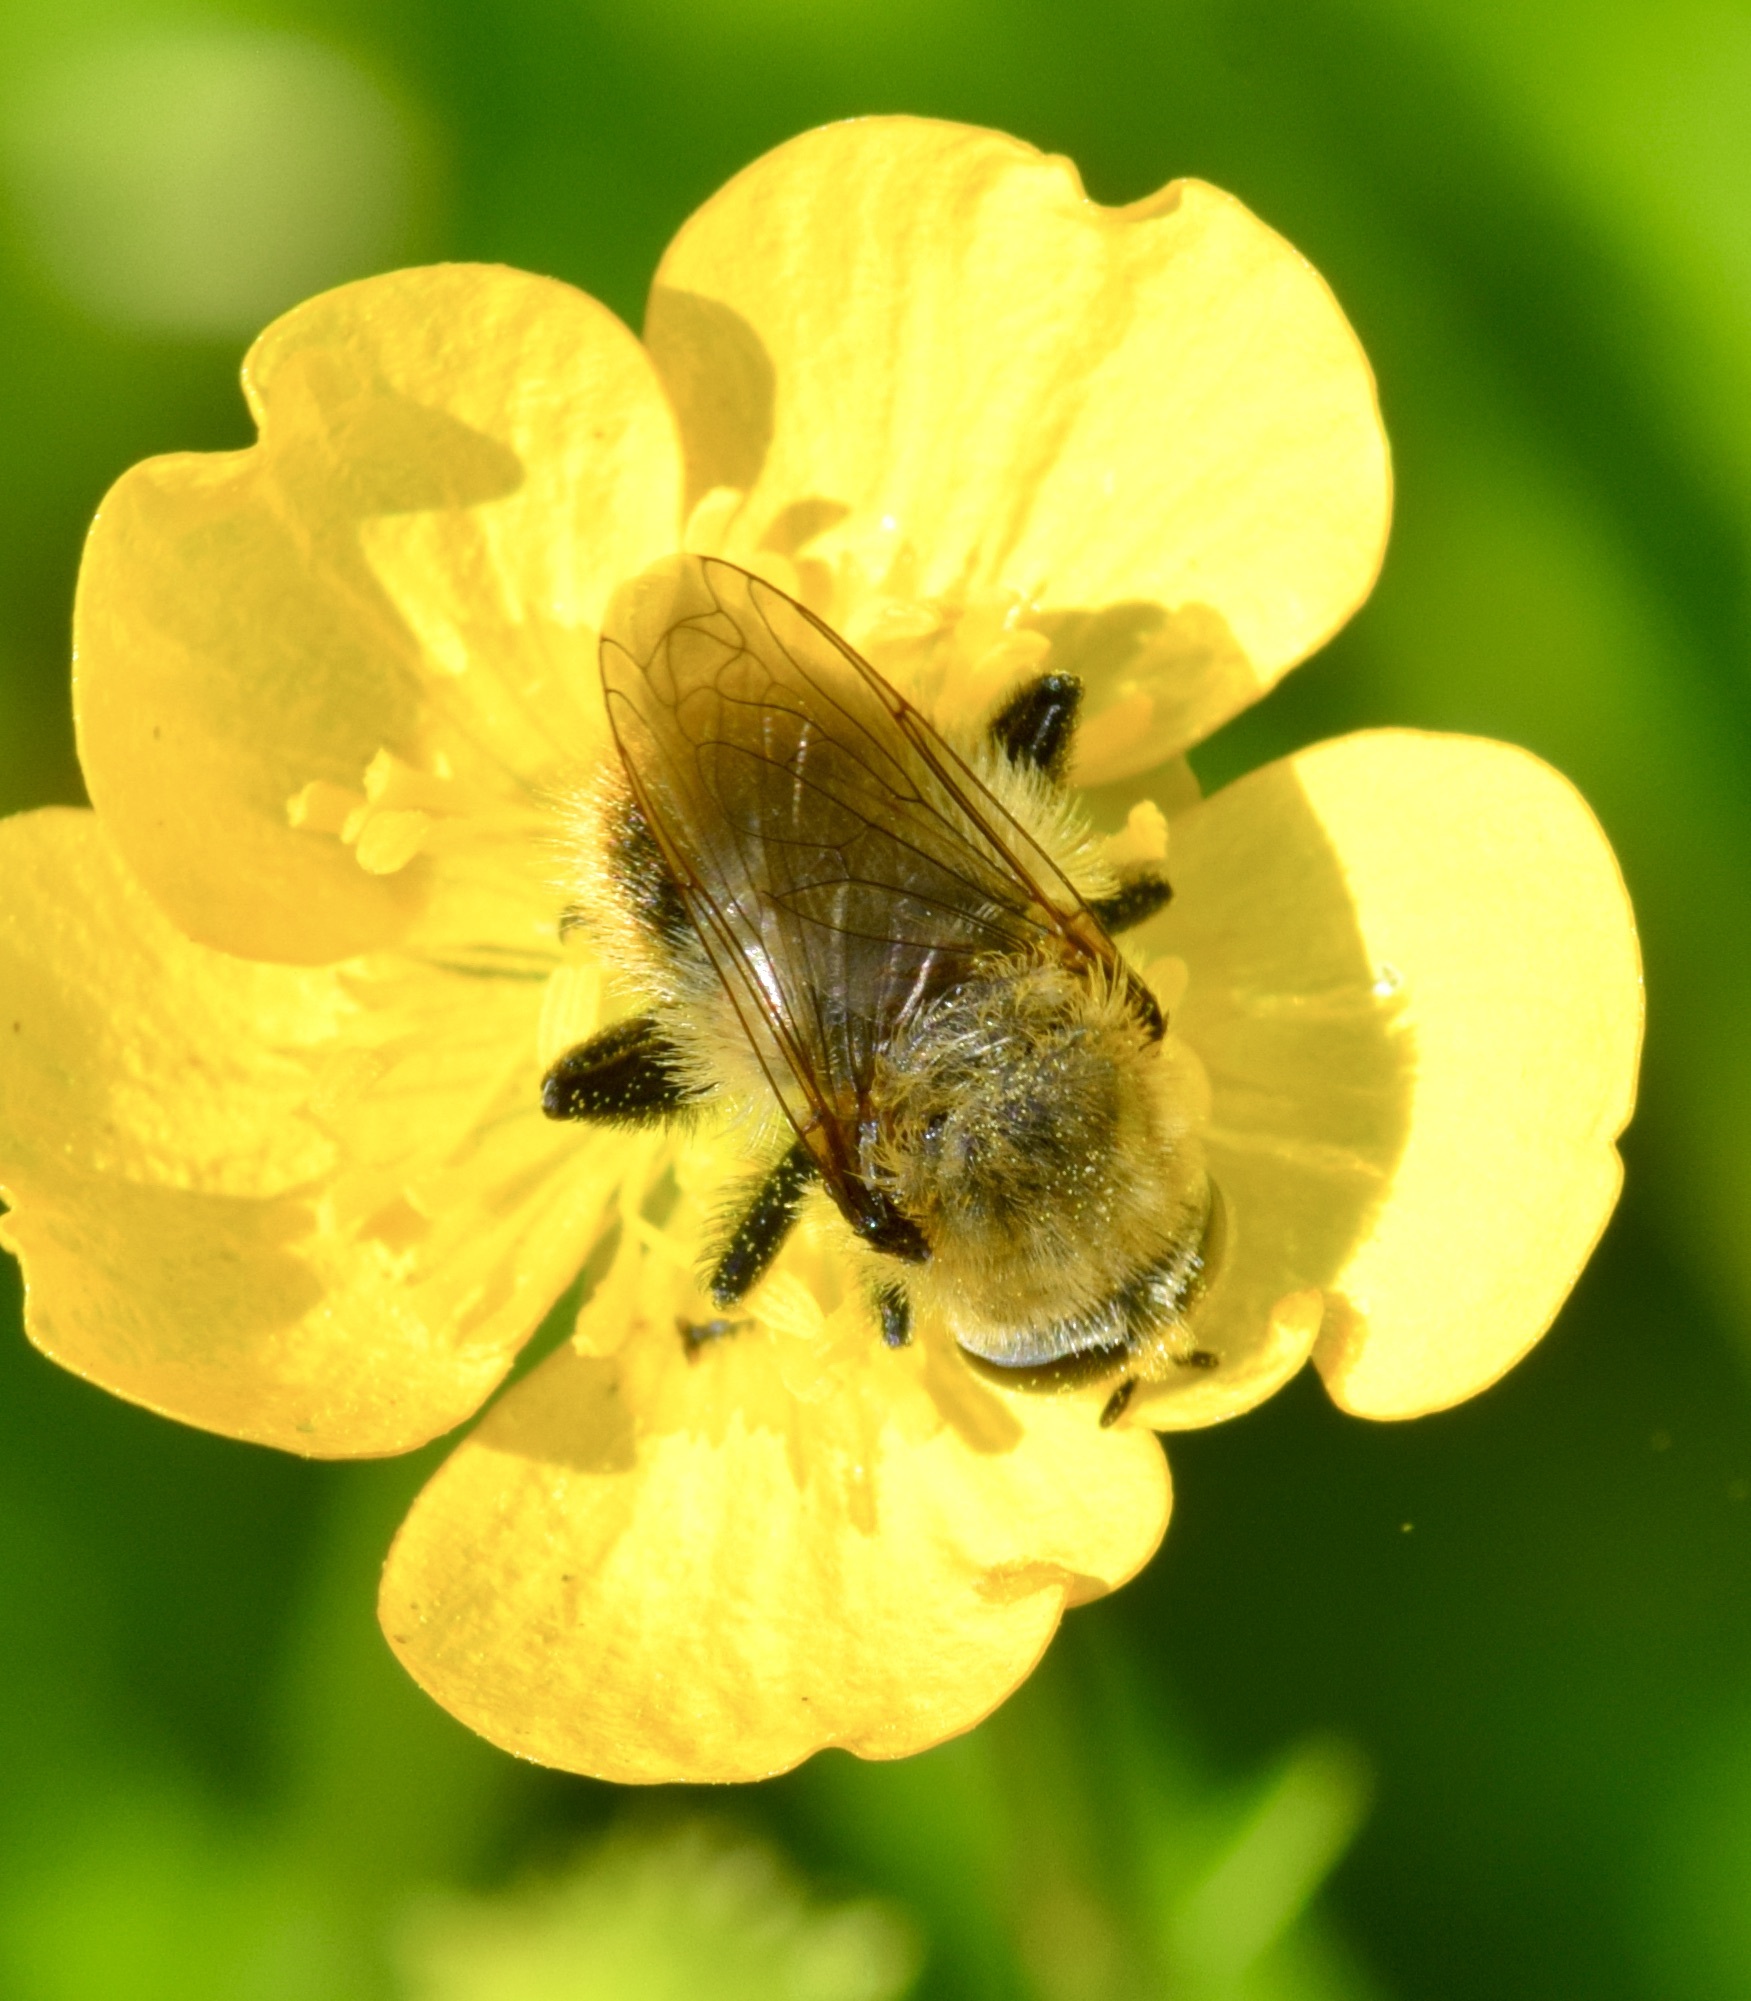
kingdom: Animalia
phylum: Arthropoda
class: Insecta
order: Diptera
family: Syrphidae
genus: Merodon
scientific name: Merodon equestris
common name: Greater bulb-fly
